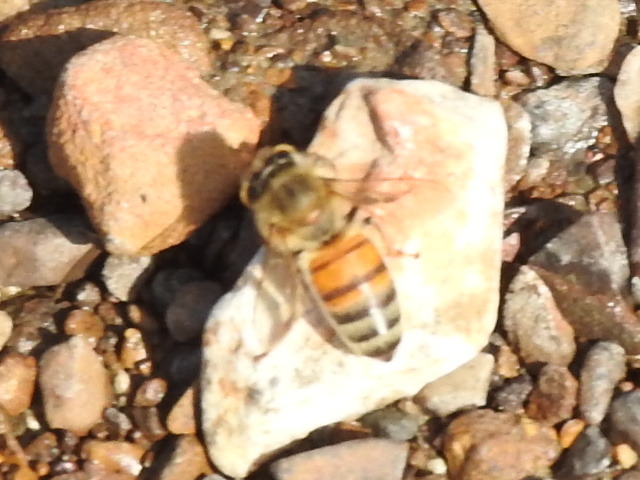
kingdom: Animalia
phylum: Arthropoda
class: Insecta
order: Hymenoptera
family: Apidae
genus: Apis
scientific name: Apis mellifera
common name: Honey bee
